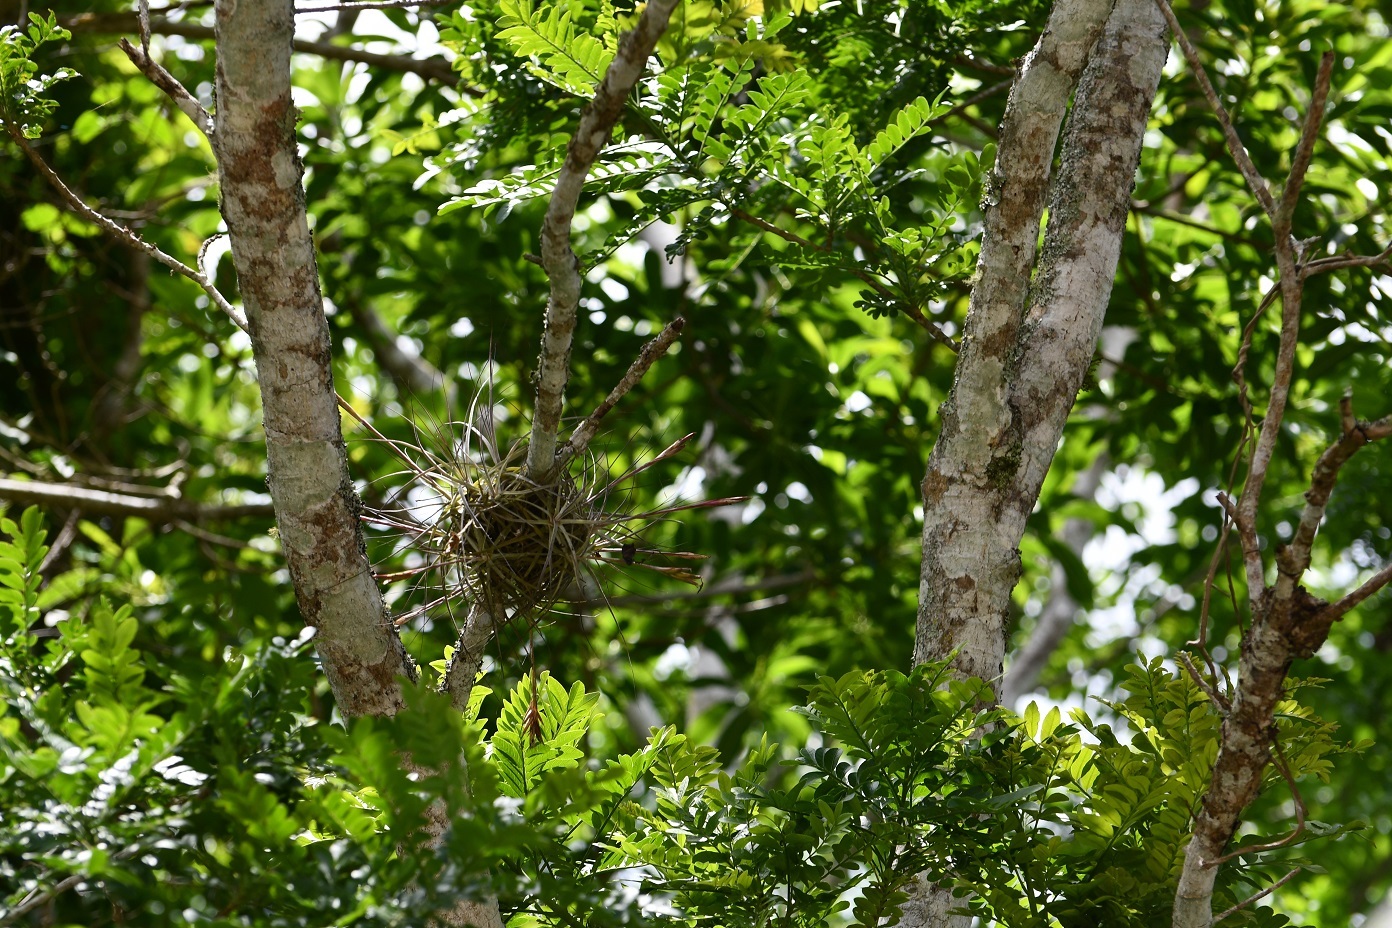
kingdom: Plantae
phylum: Tracheophyta
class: Liliopsida
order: Poales
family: Bromeliaceae
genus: Tillandsia
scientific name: Tillandsia schiedeana
